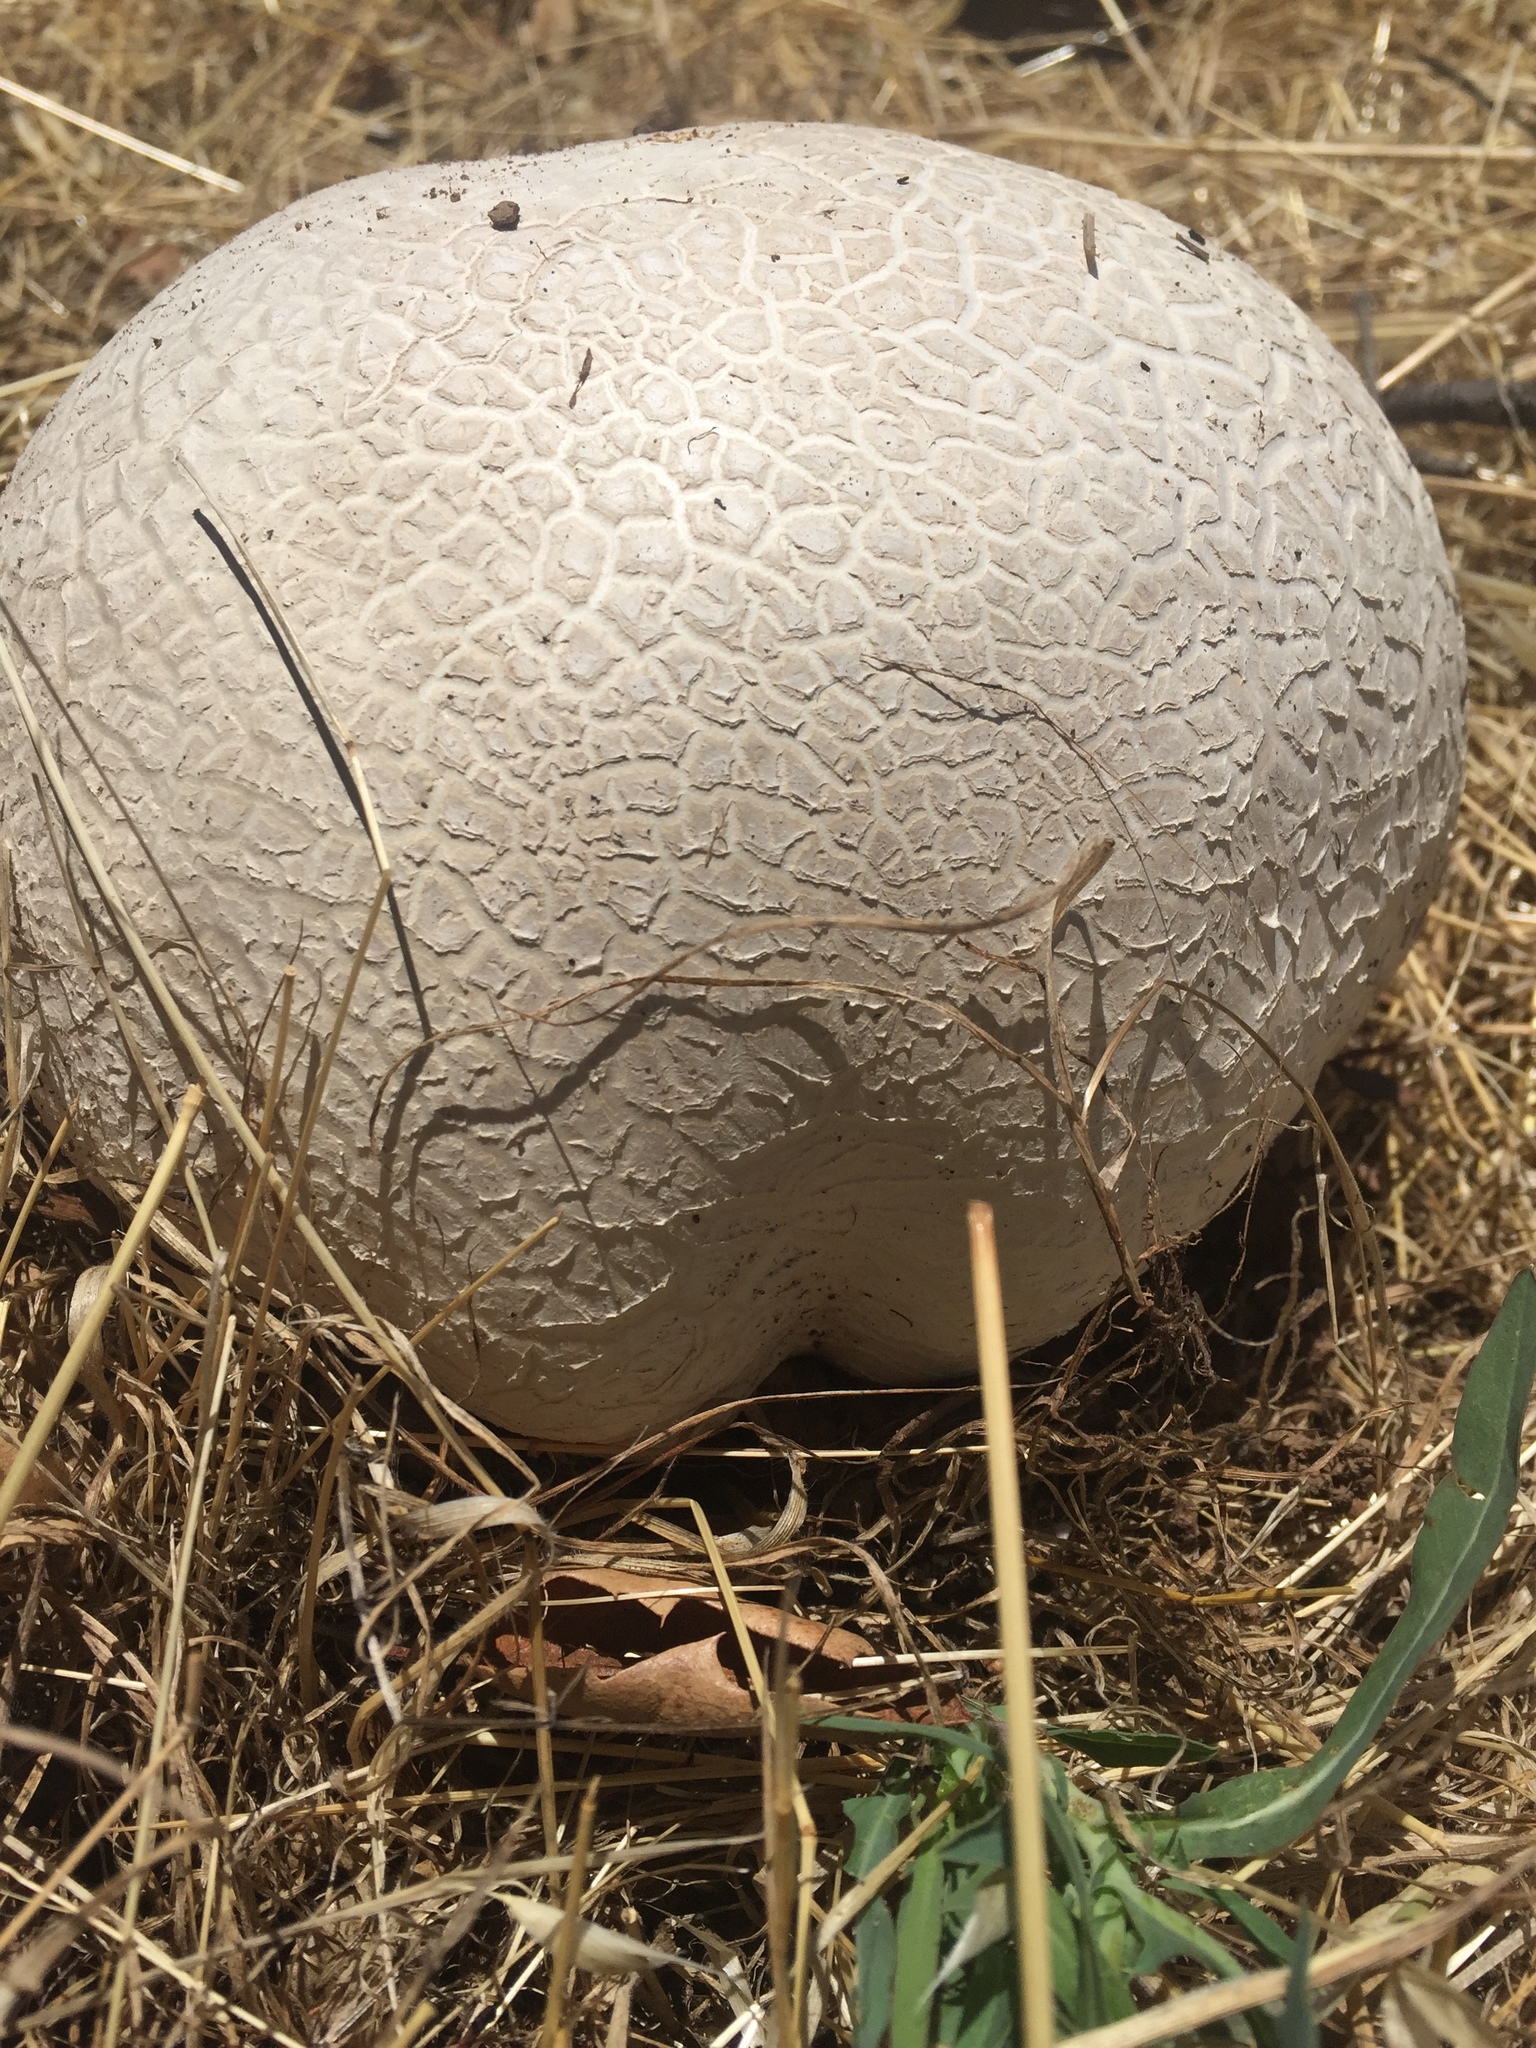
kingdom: Fungi
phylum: Basidiomycota
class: Agaricomycetes
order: Agaricales
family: Lycoperdaceae
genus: Calvatia
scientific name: Calvatia booniana
